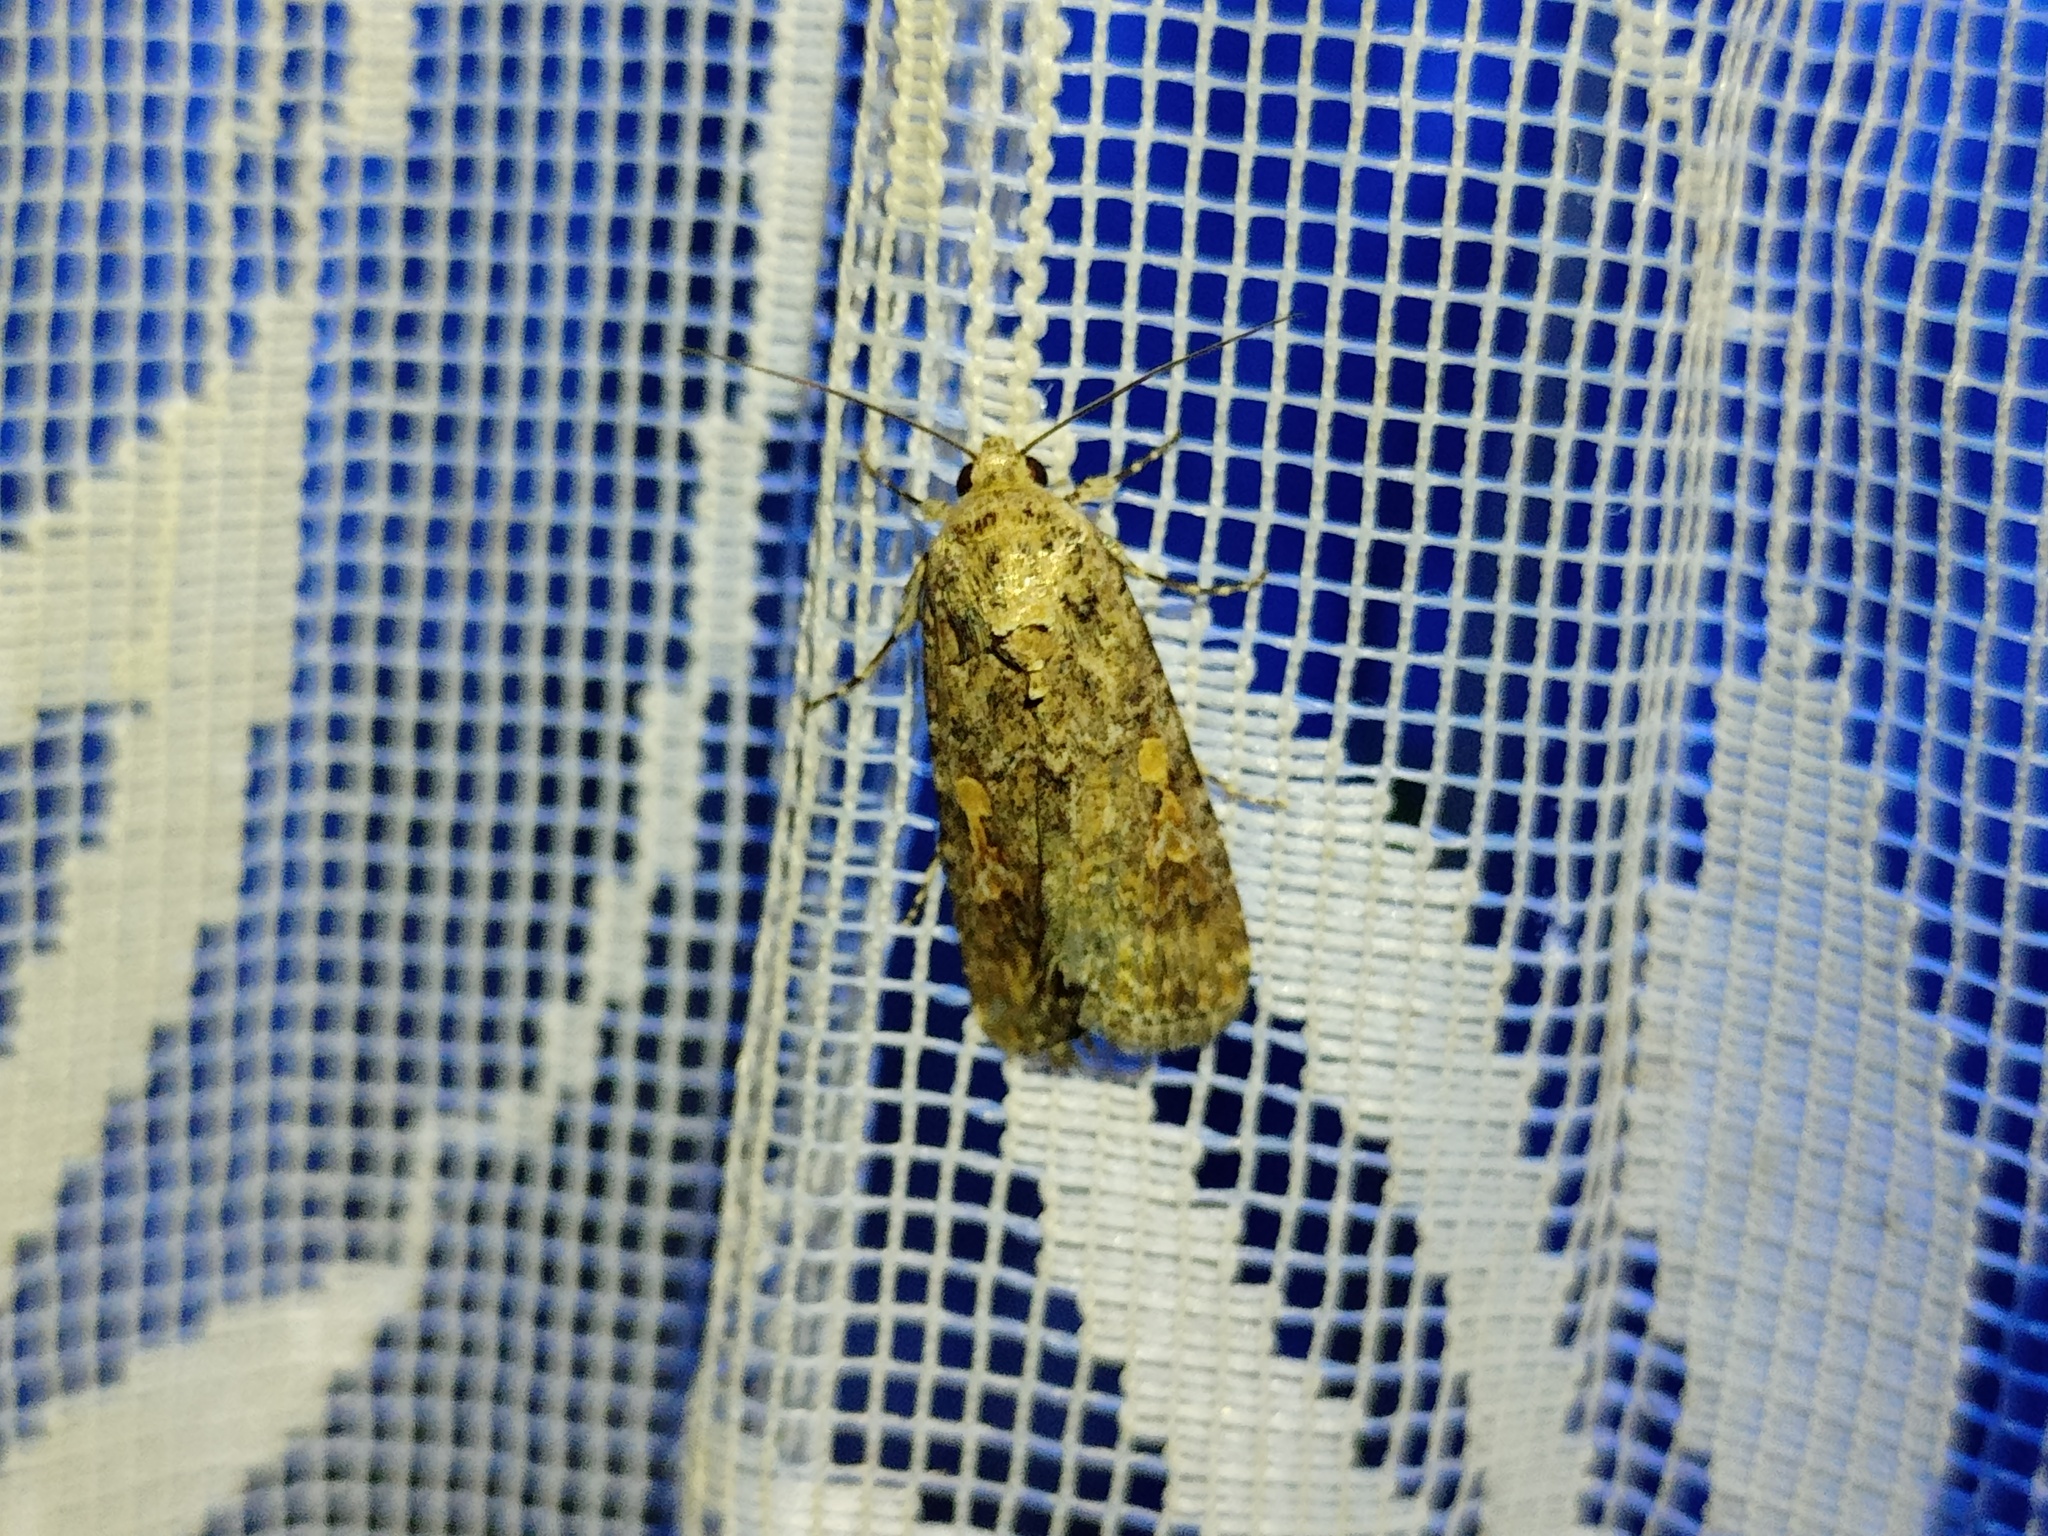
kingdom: Animalia
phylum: Arthropoda
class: Insecta
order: Lepidoptera
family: Noctuidae
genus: Spodoptera
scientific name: Spodoptera exigua
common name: Beet armyworm
